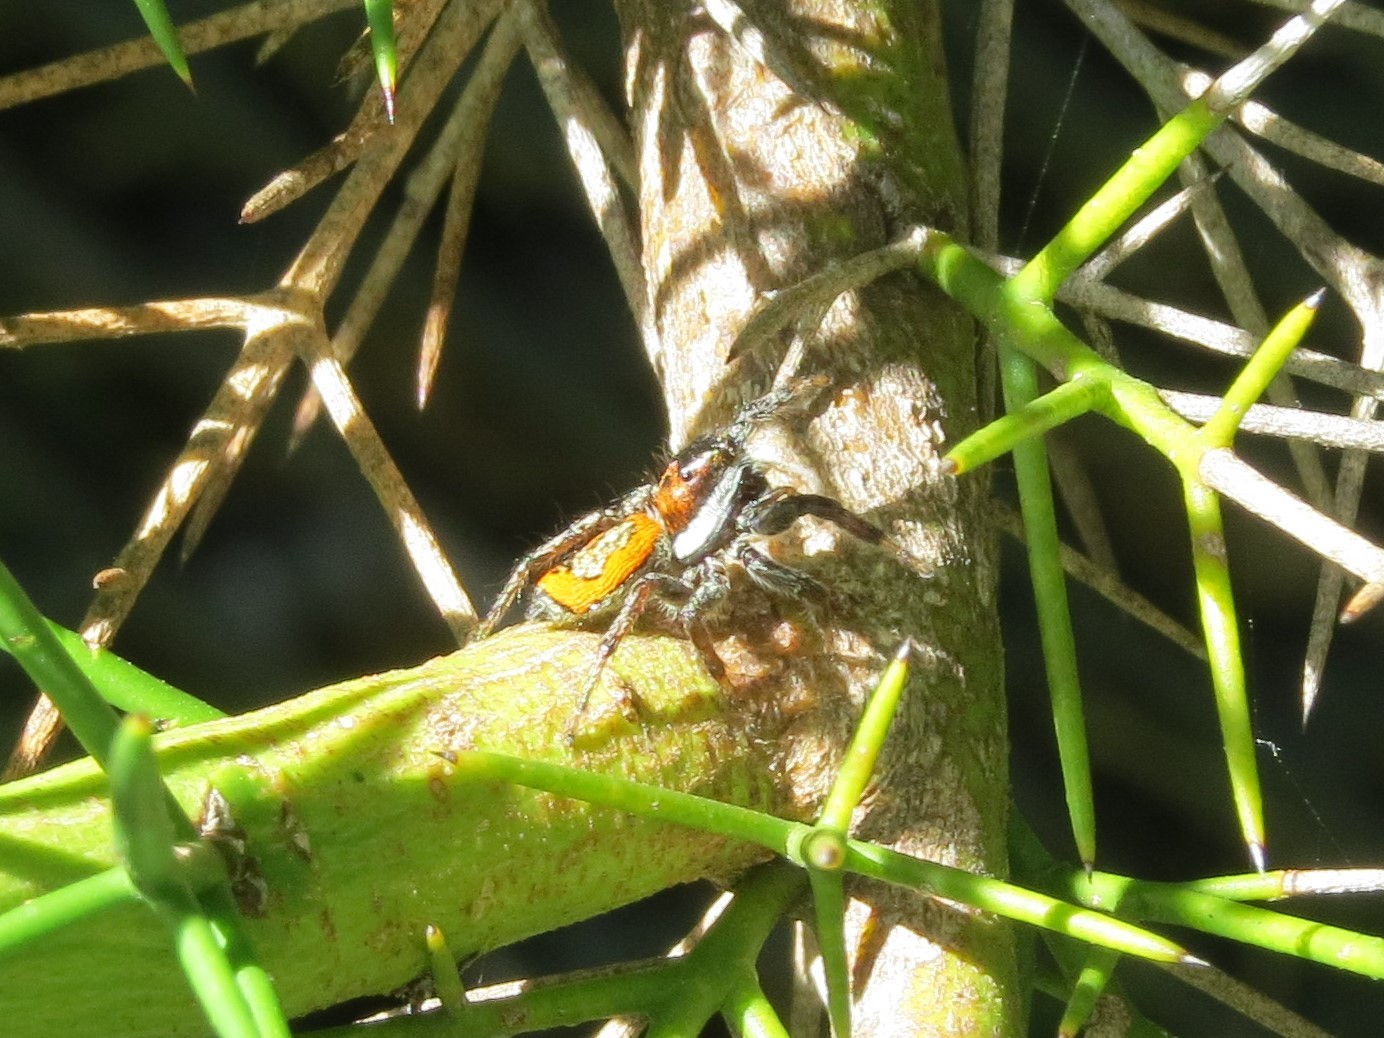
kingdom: Animalia
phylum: Arthropoda
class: Arachnida
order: Araneae
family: Salticidae
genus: Phiale
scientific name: Phiale roburifoliata
